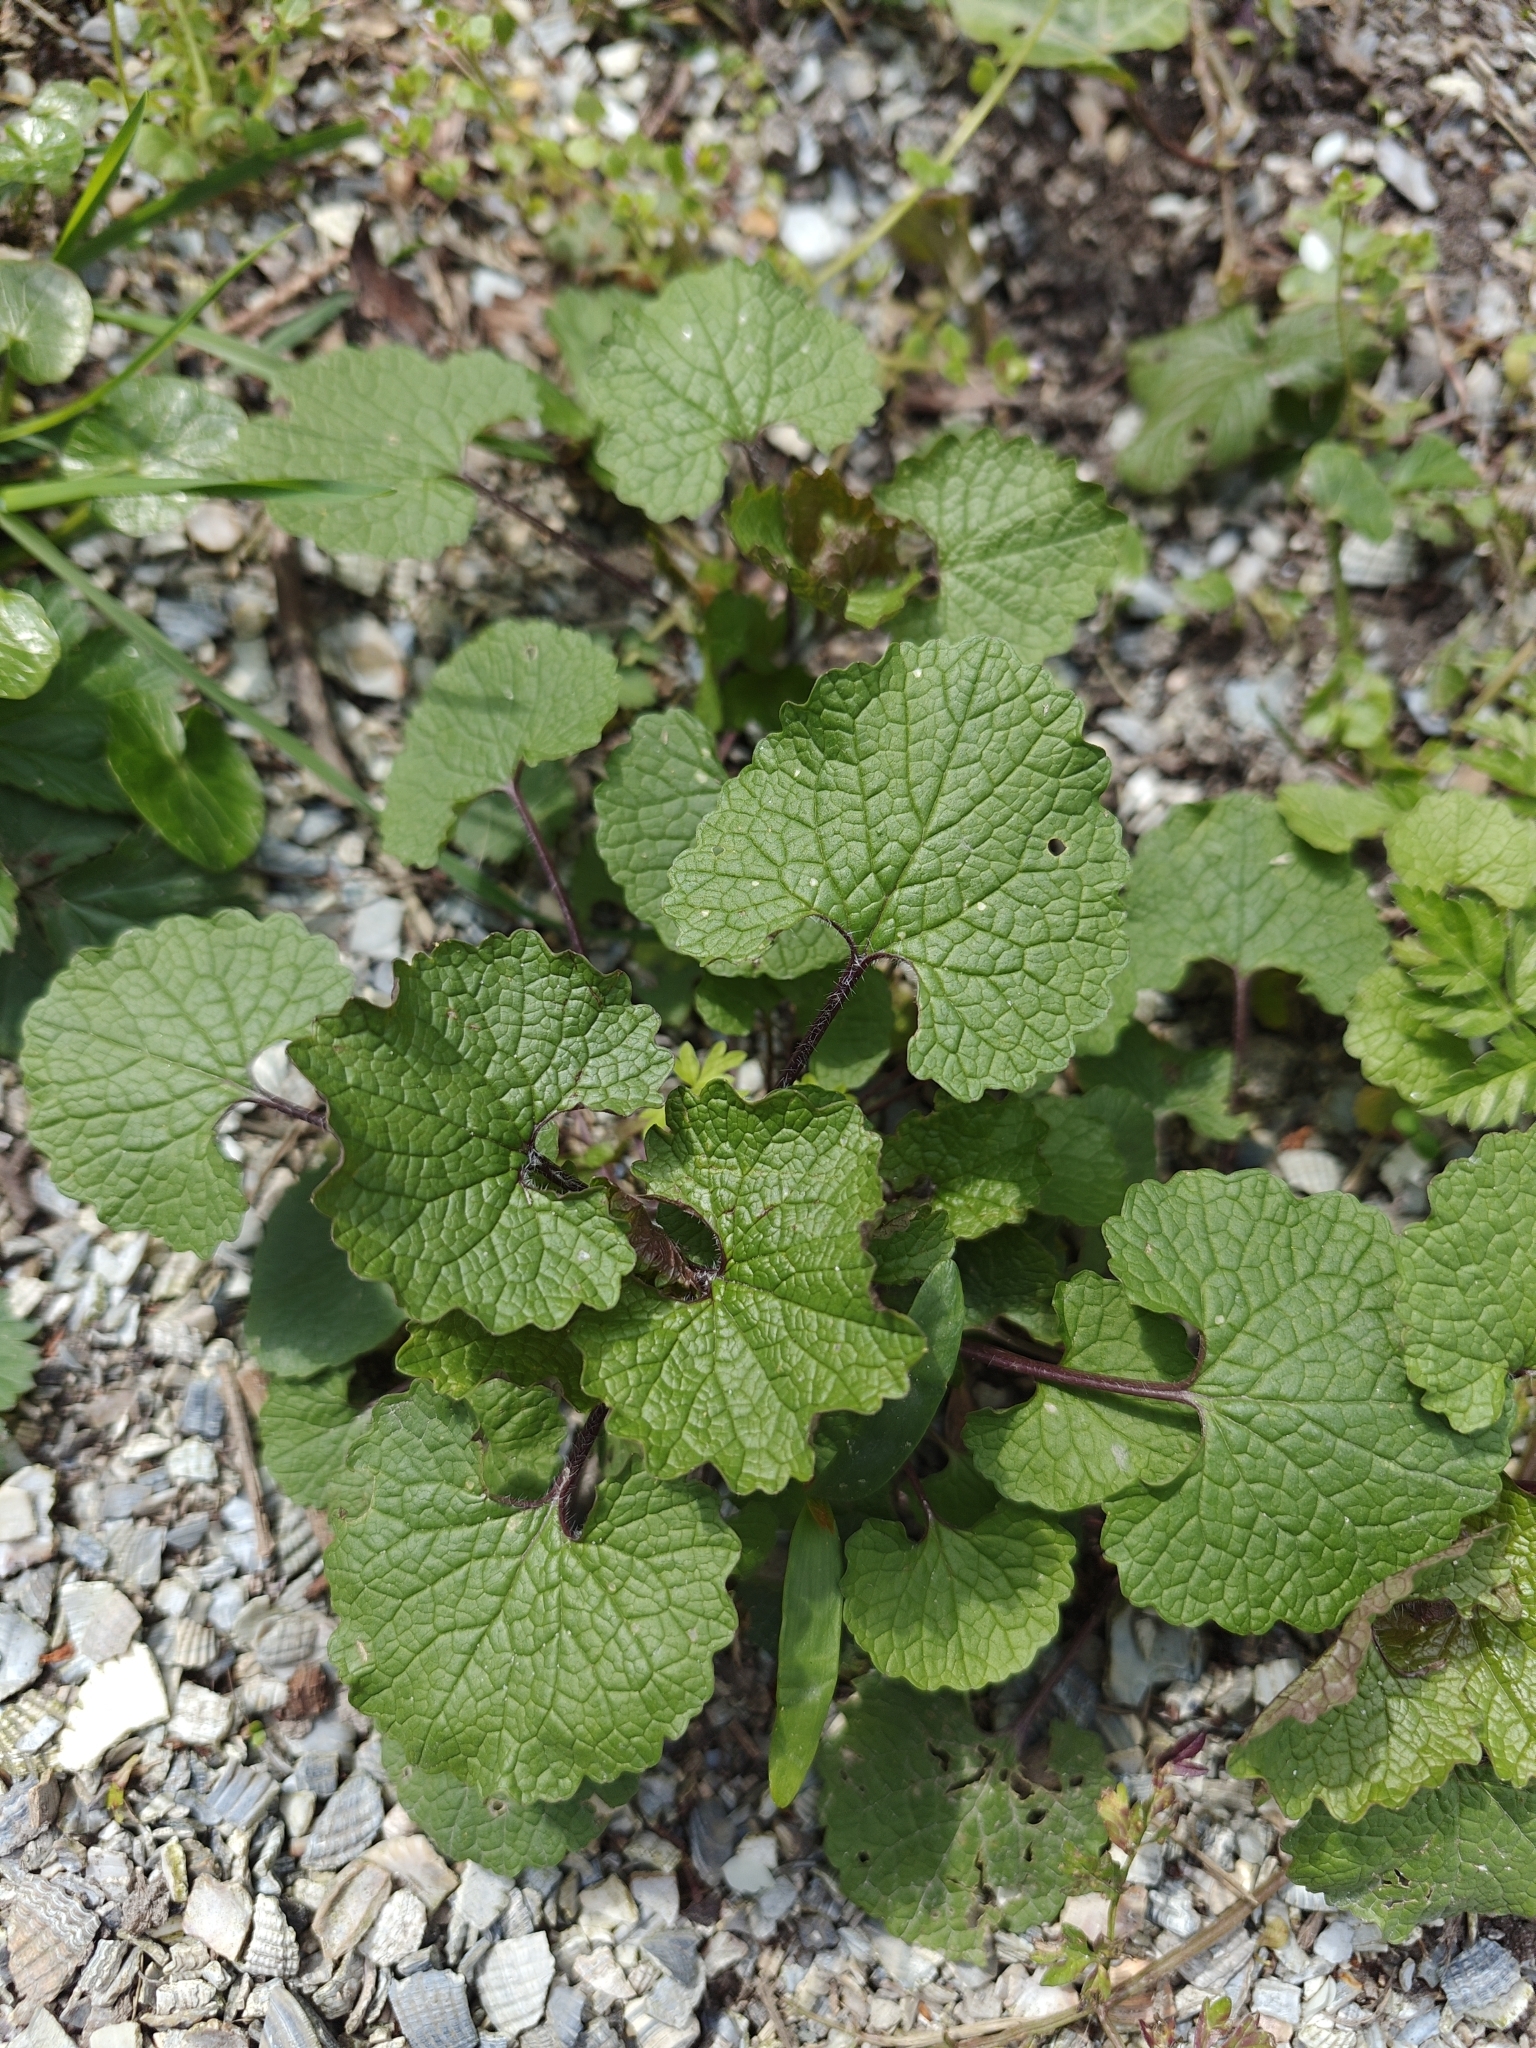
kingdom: Plantae
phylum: Tracheophyta
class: Magnoliopsida
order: Brassicales
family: Brassicaceae
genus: Alliaria
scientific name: Alliaria petiolata
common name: Garlic mustard
